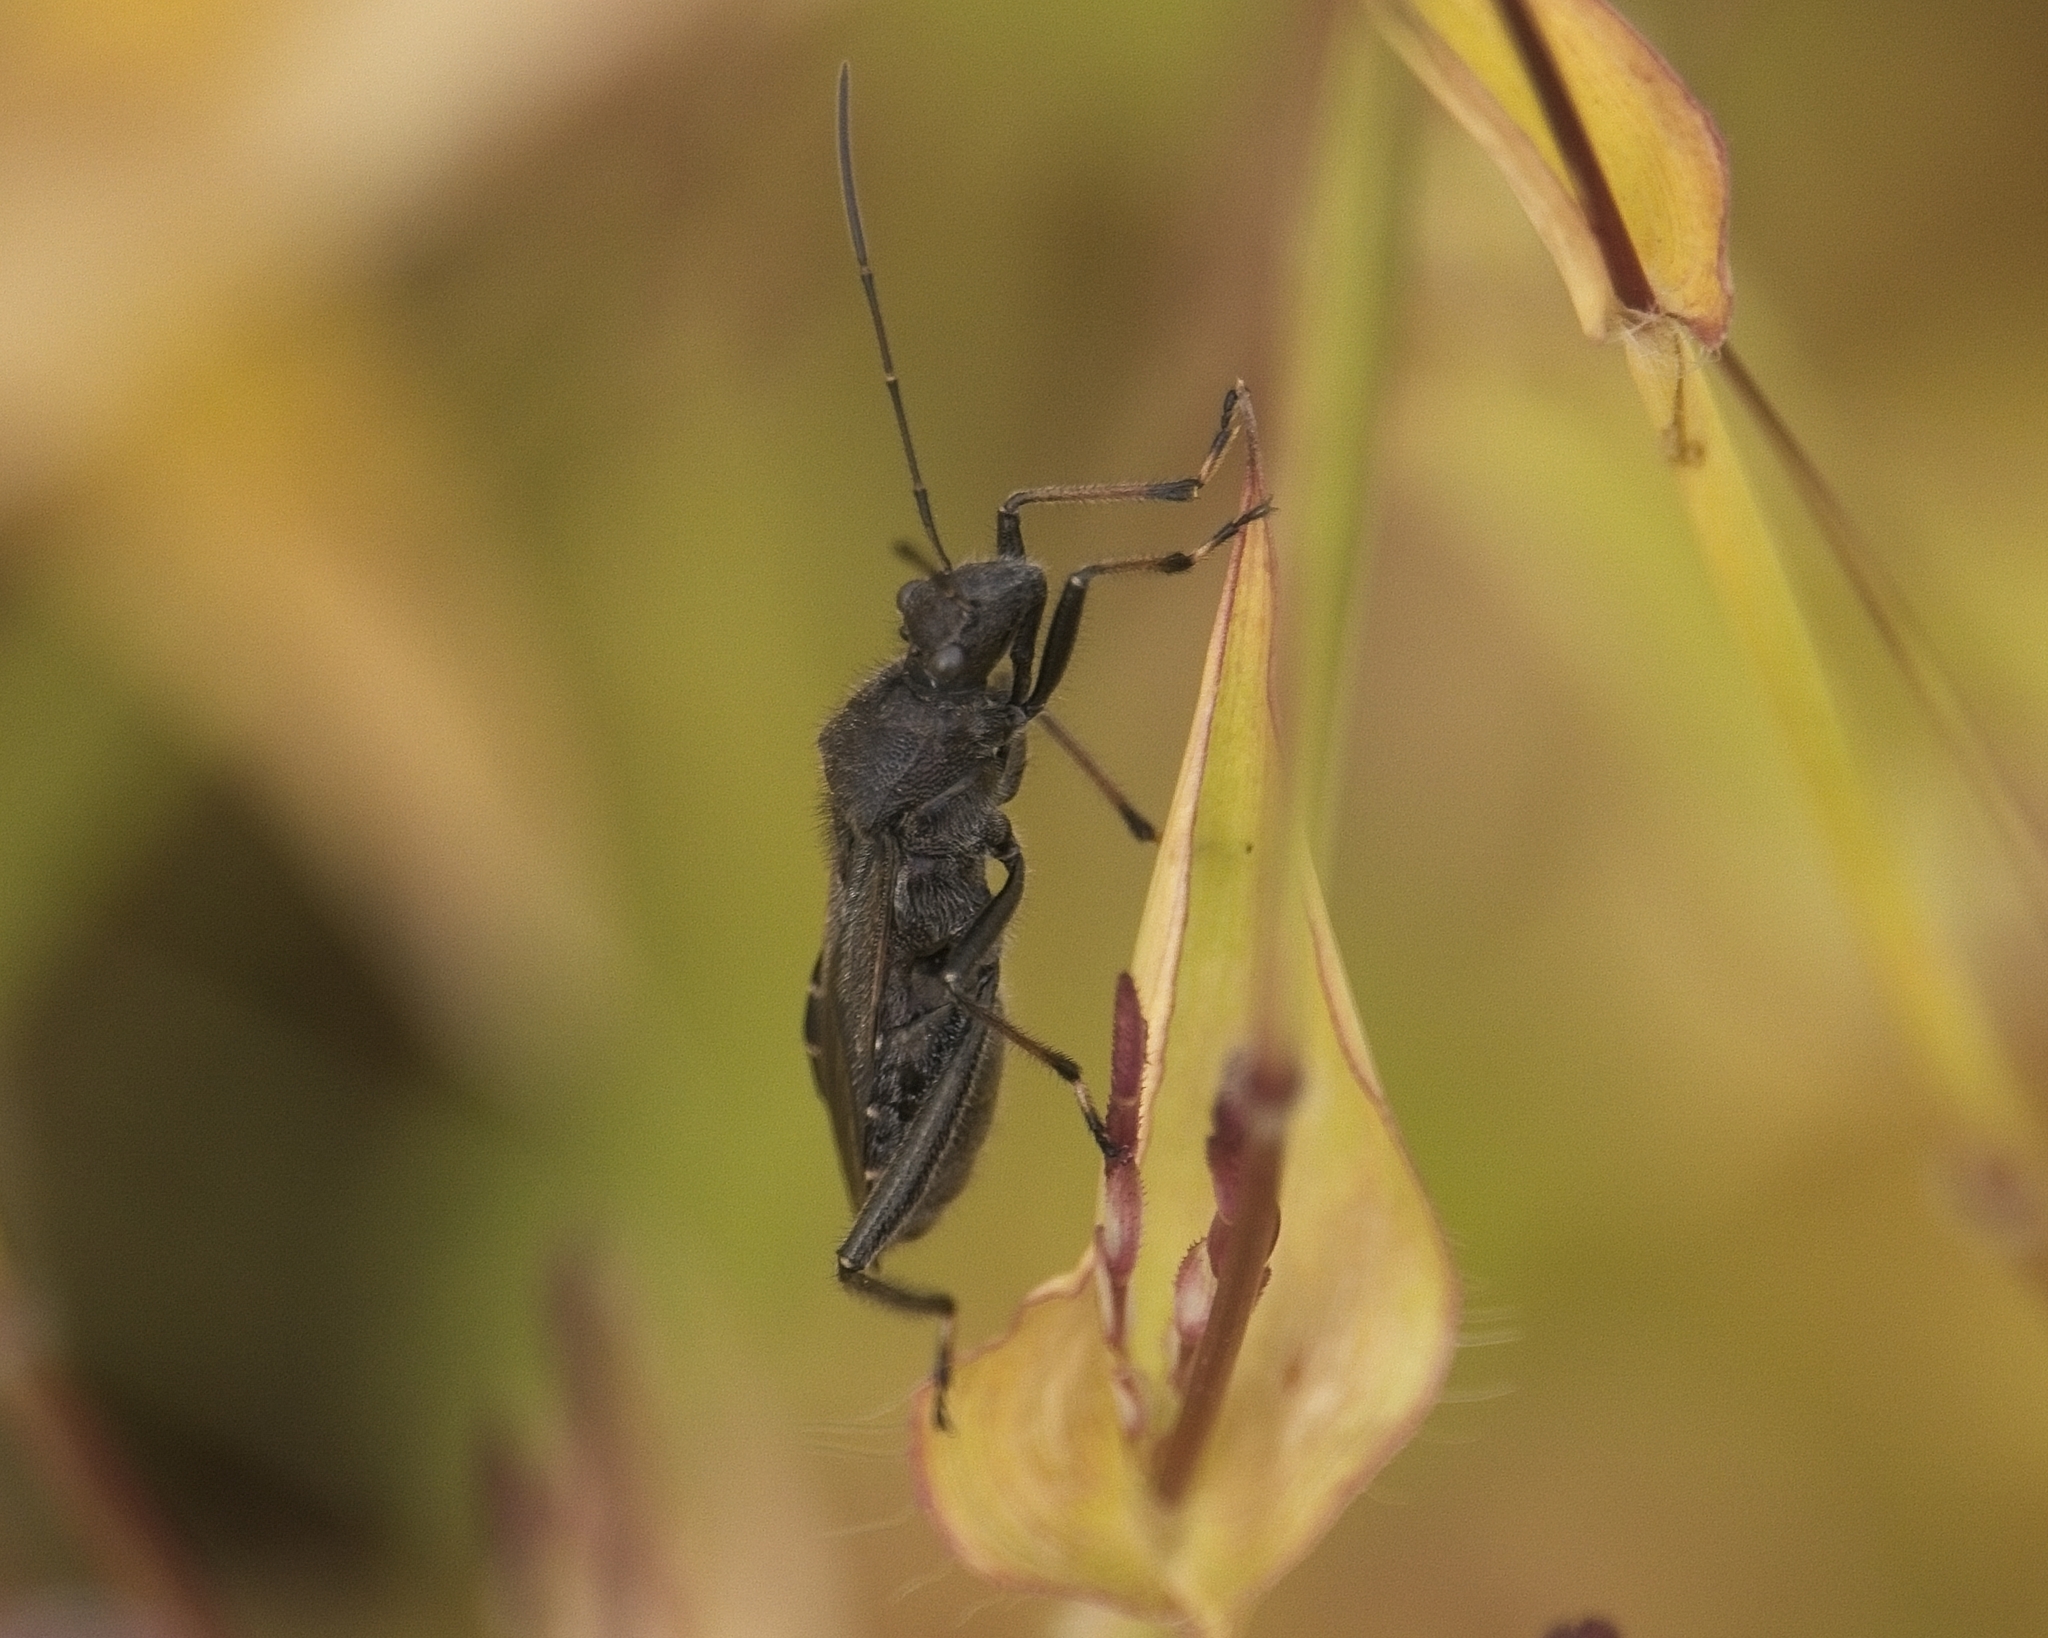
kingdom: Animalia
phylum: Arthropoda
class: Insecta
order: Hemiptera
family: Alydidae
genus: Alydus
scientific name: Alydus eurinus
